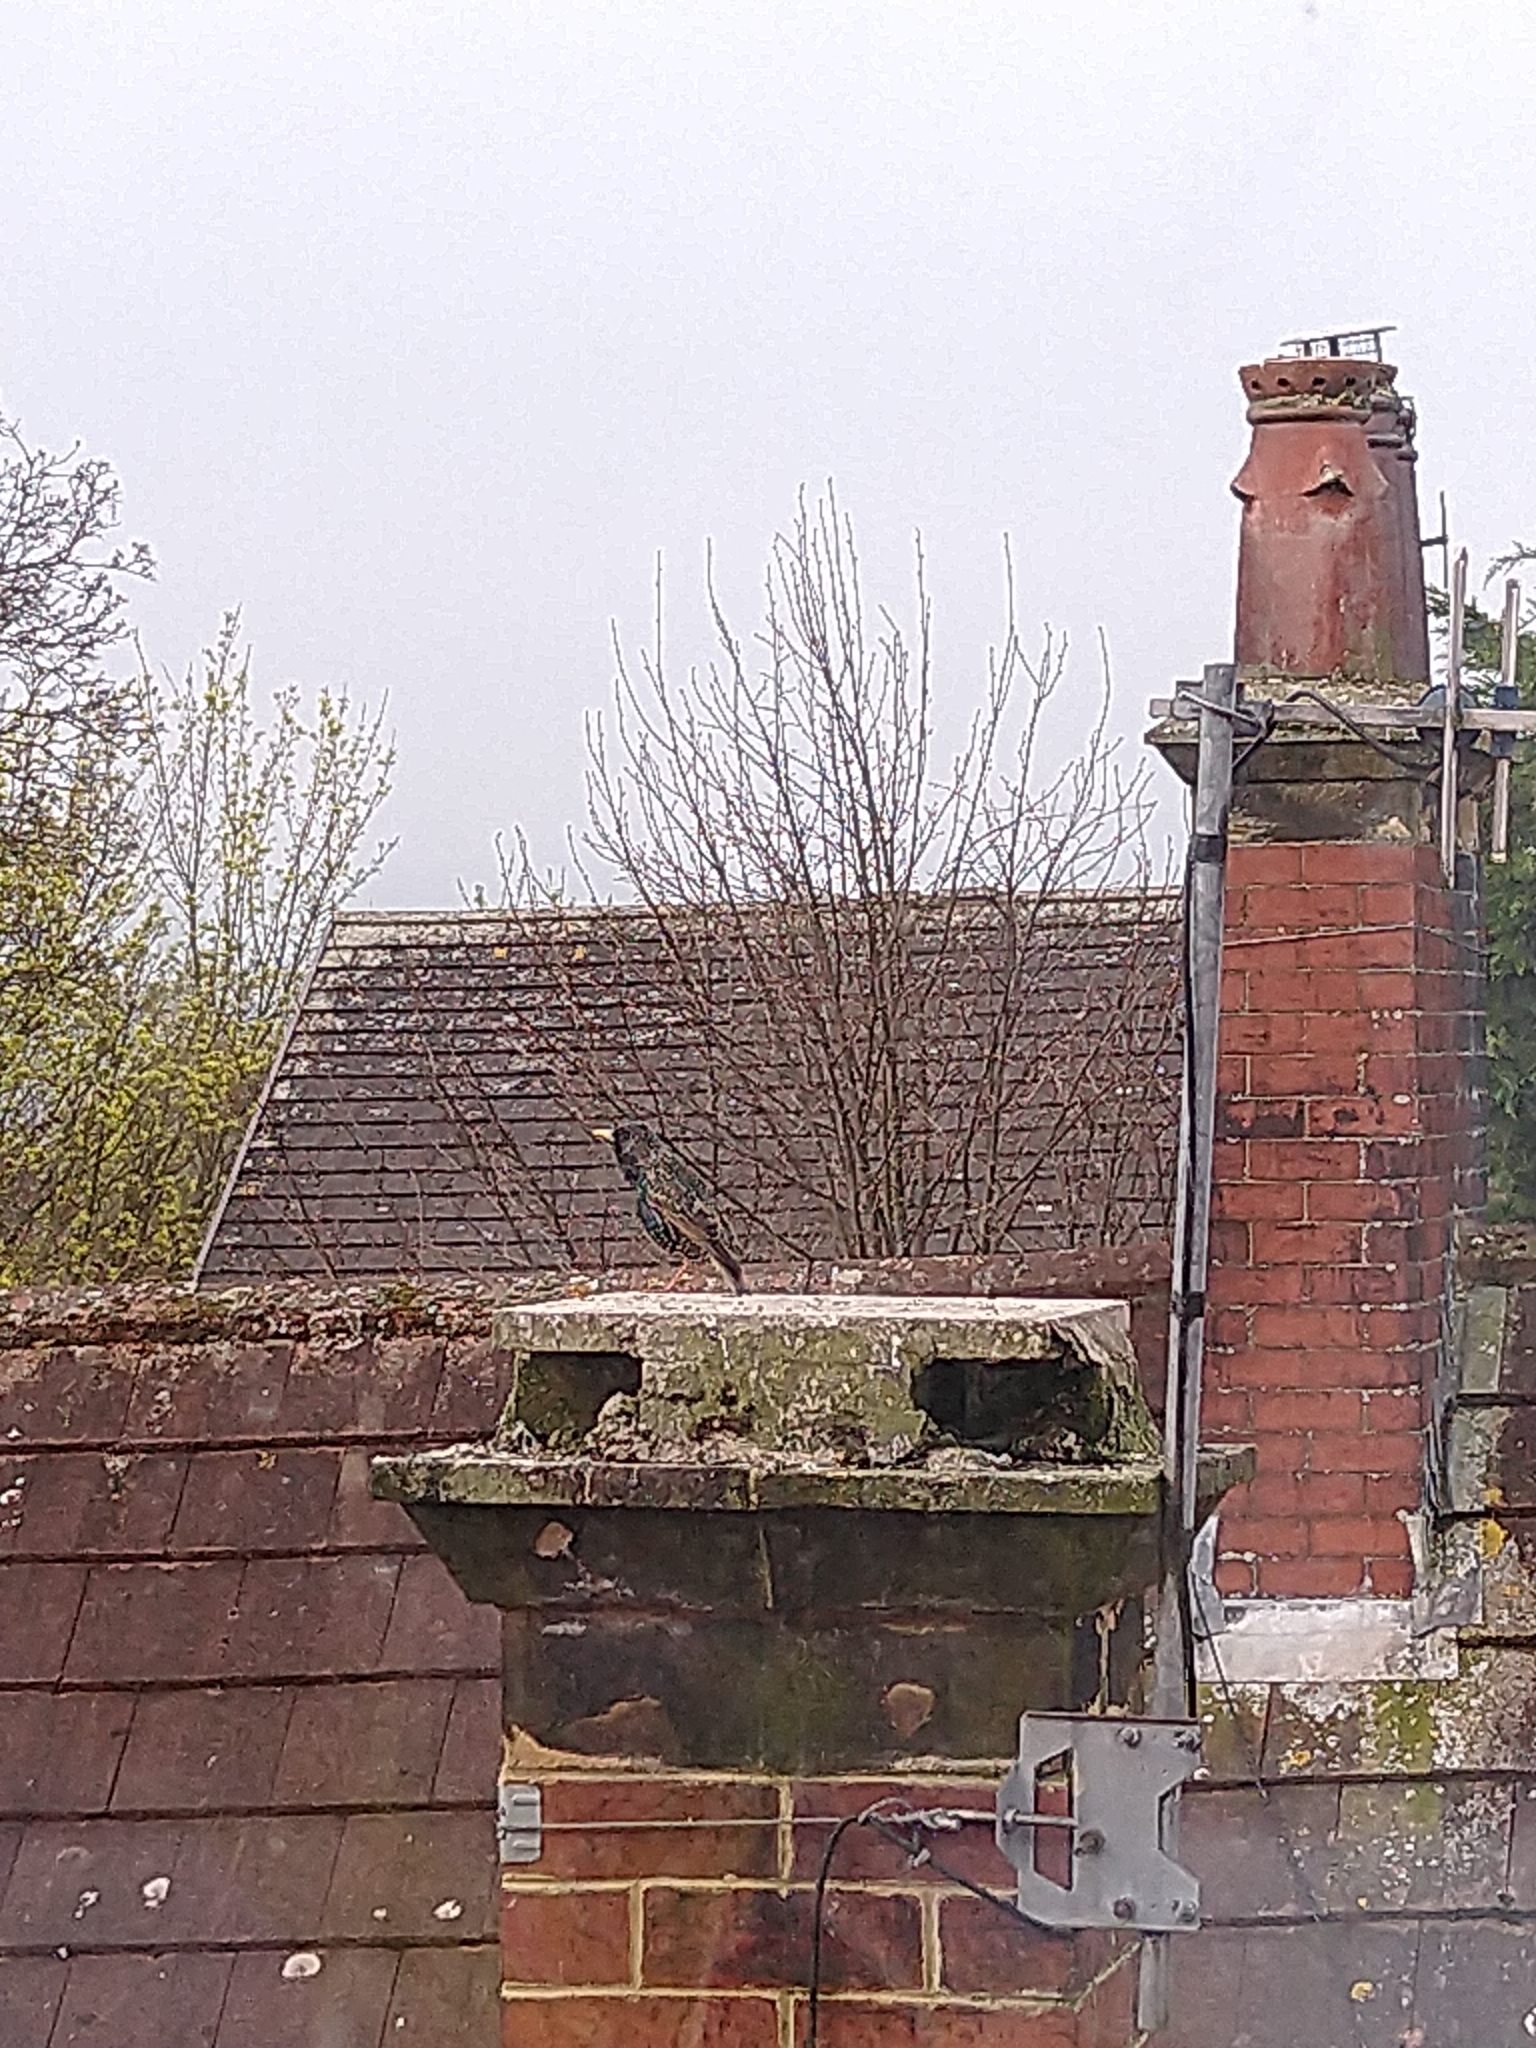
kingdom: Animalia
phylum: Chordata
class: Aves
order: Passeriformes
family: Sturnidae
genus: Sturnus
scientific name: Sturnus vulgaris
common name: Common starling
